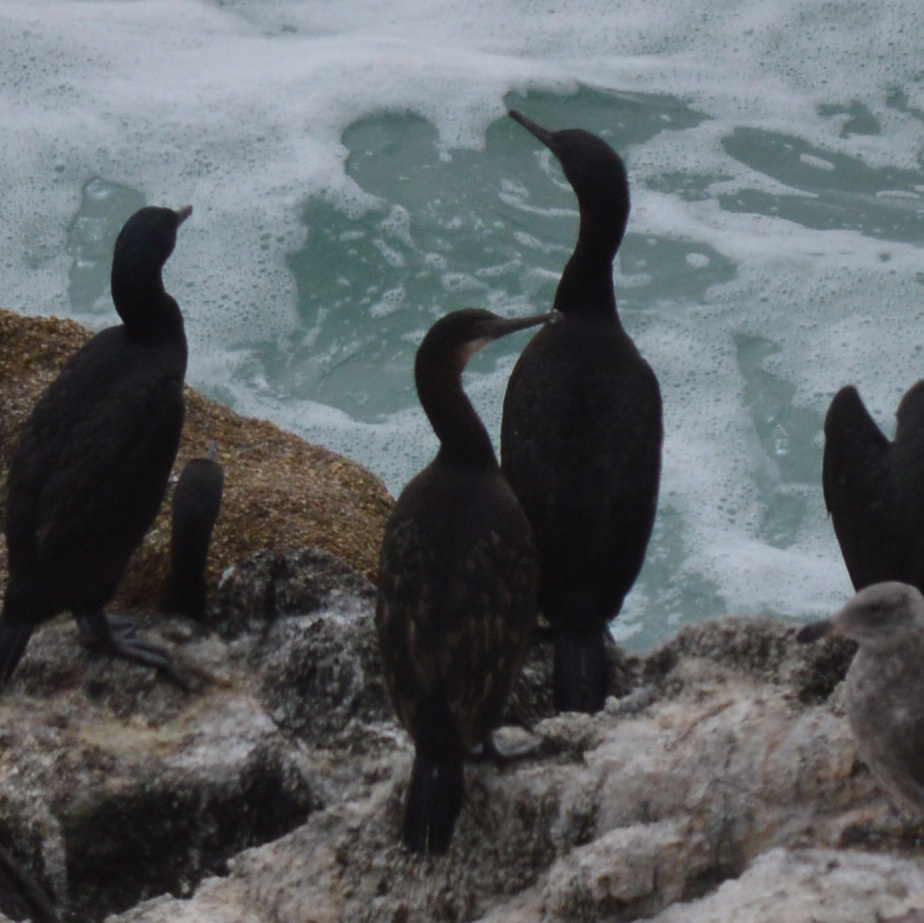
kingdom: Animalia
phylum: Chordata
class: Aves
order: Suliformes
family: Phalacrocoracidae
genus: Urile
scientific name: Urile penicillatus
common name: Brandt's cormorant
